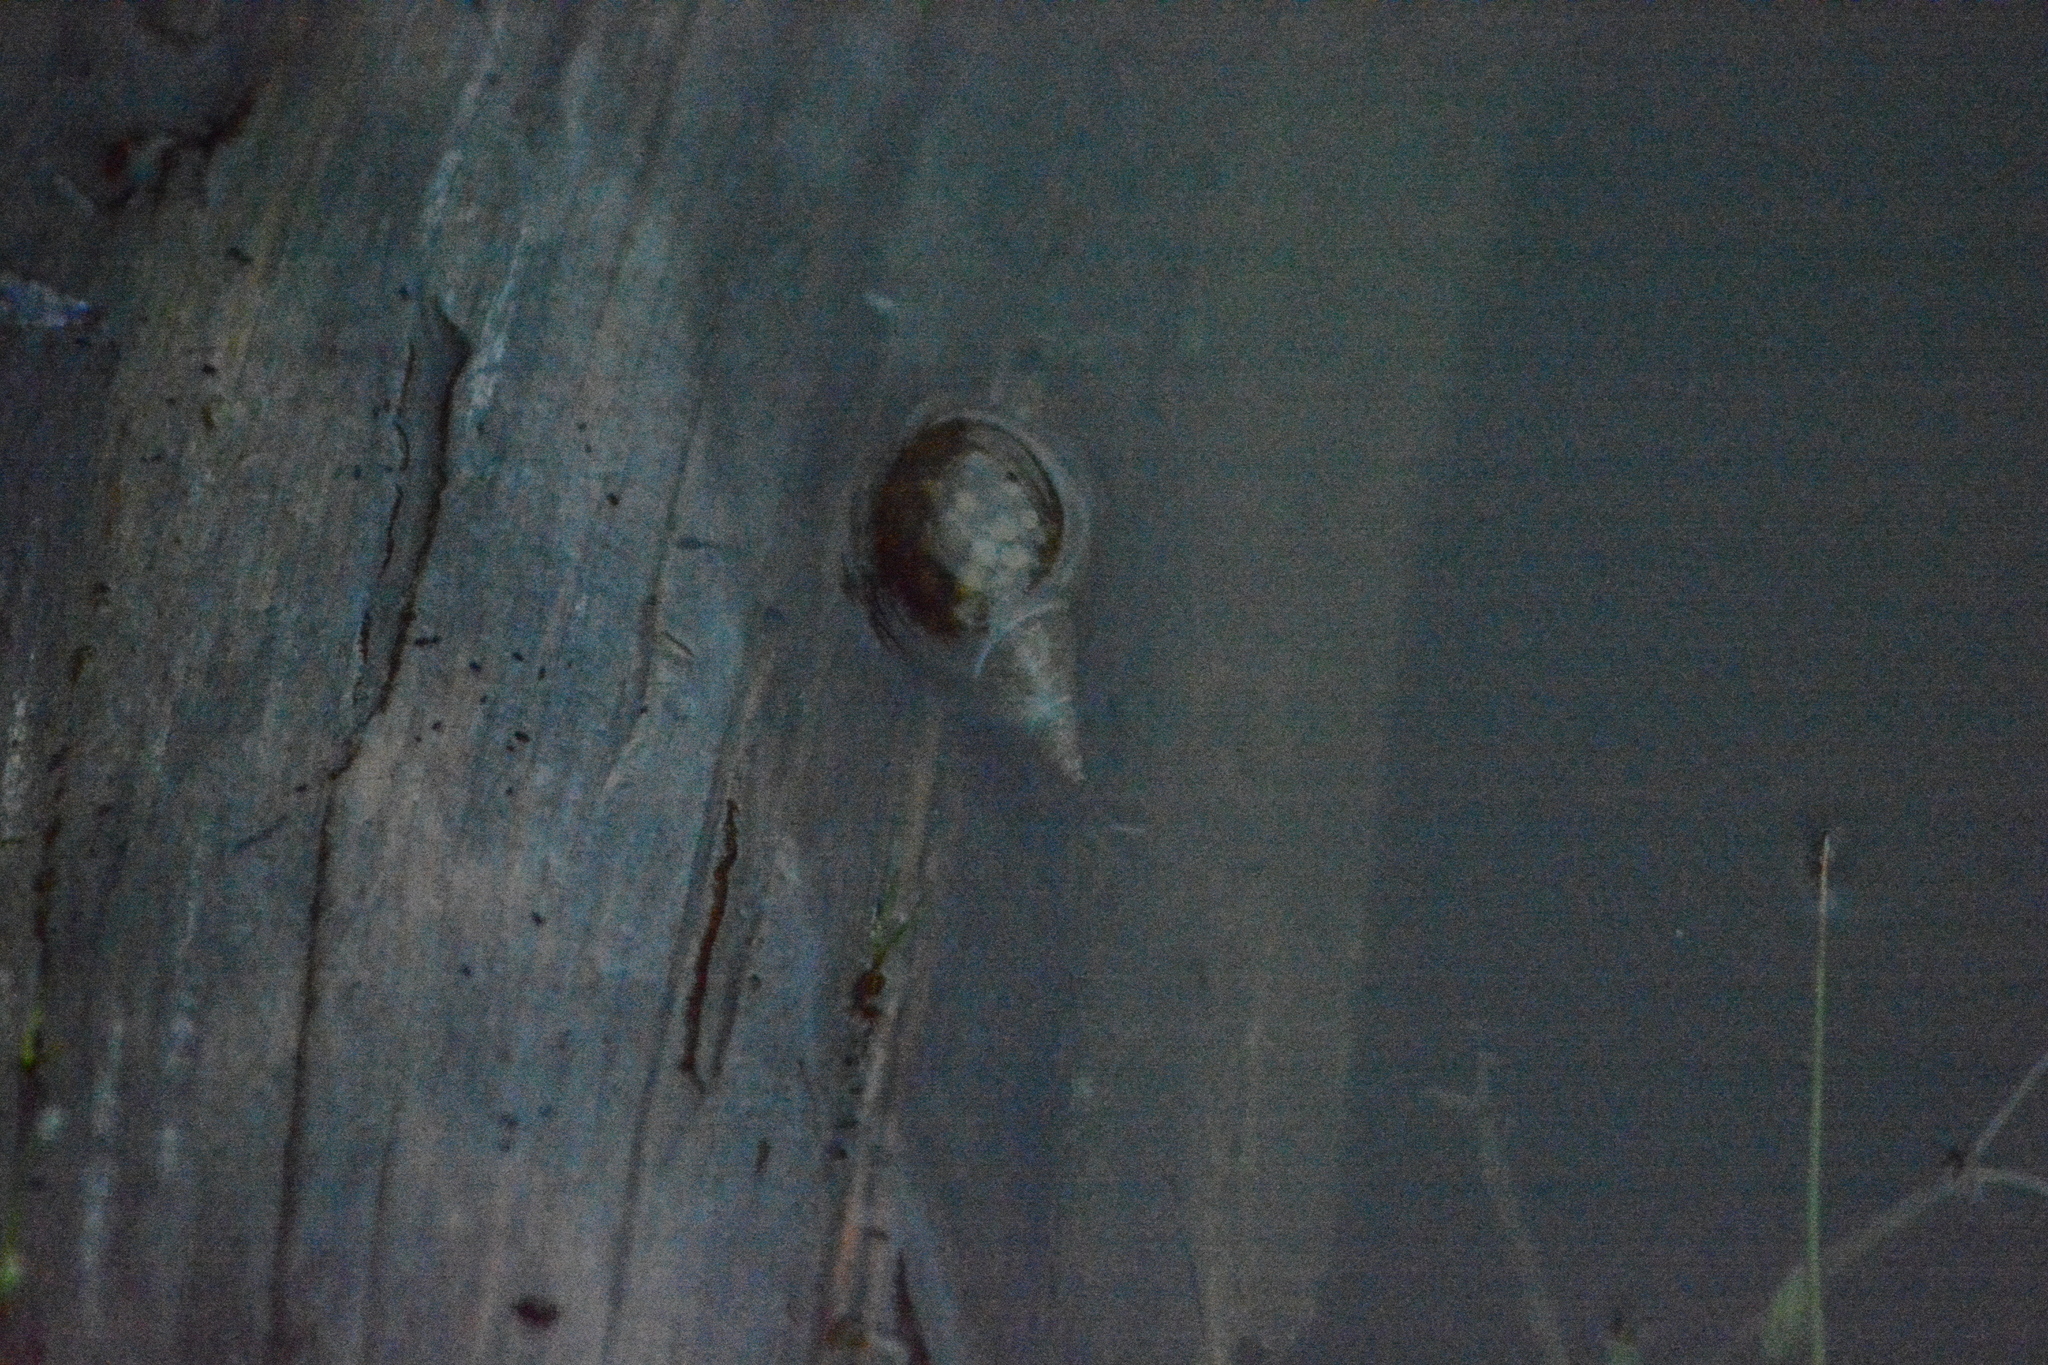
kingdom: Animalia
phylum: Mollusca
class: Gastropoda
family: Lymnaeidae
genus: Lymnaea
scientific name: Lymnaea stagnalis
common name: Great pond snail
